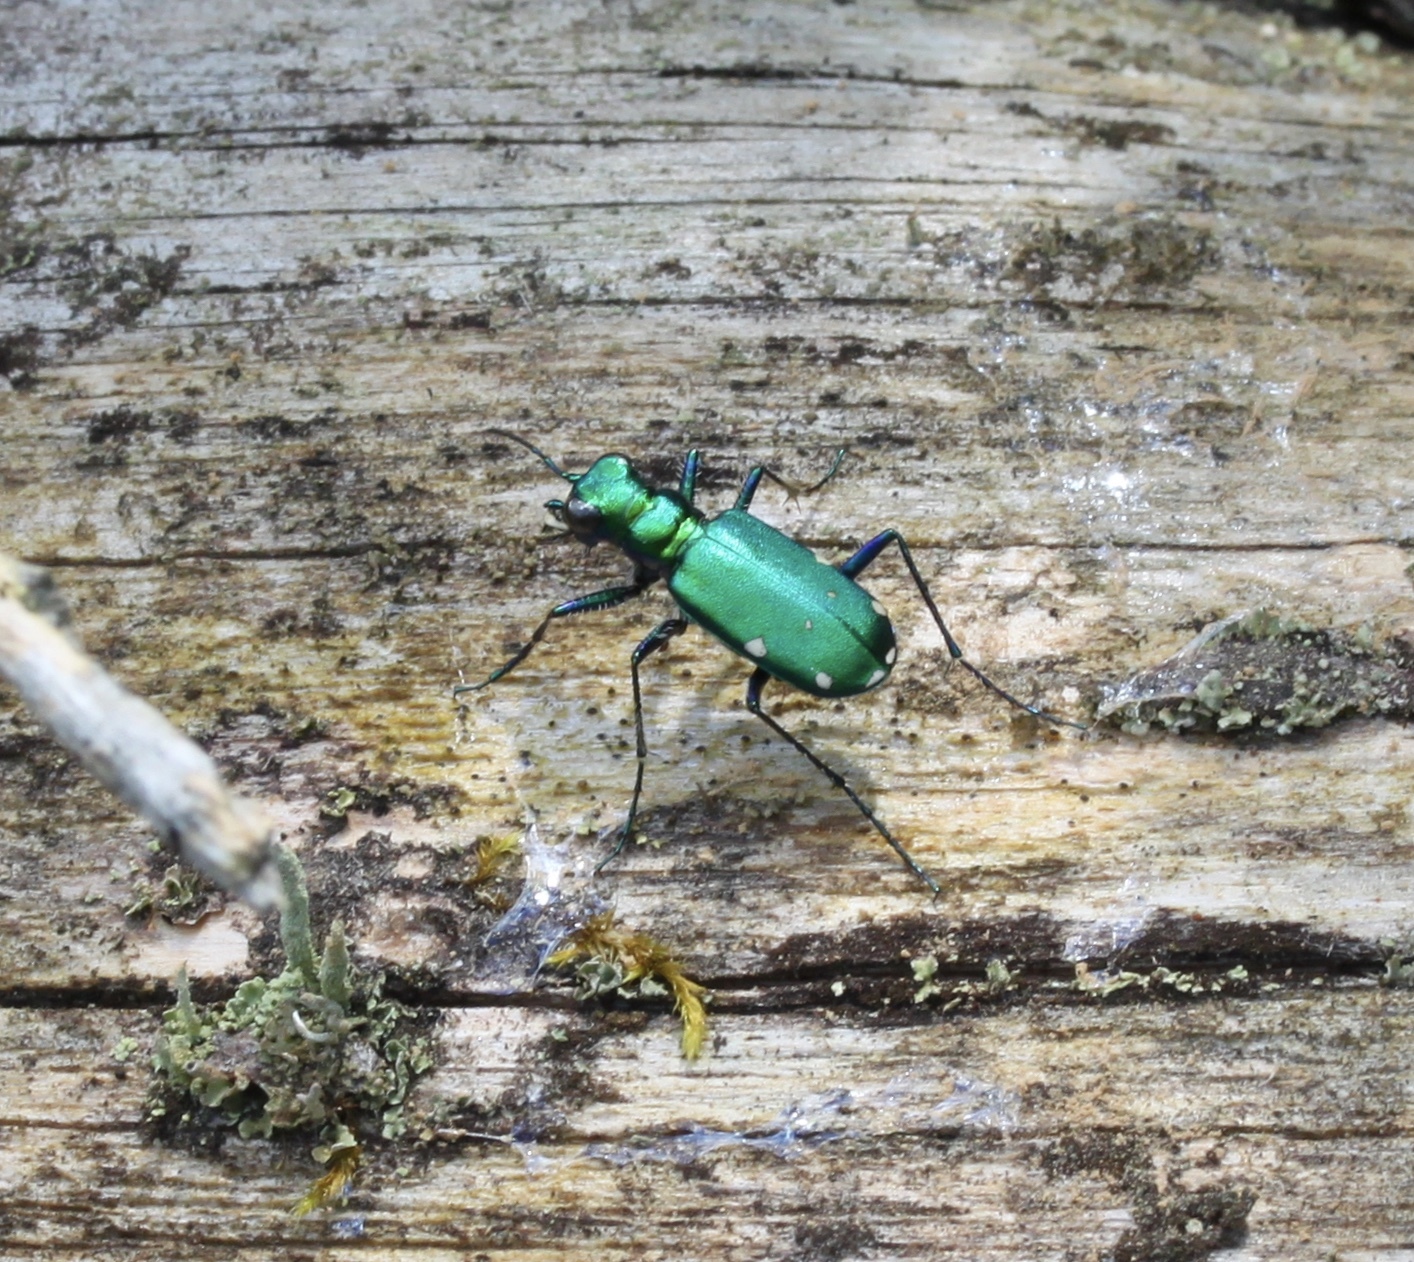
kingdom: Animalia
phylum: Arthropoda
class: Insecta
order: Coleoptera
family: Carabidae
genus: Cicindela
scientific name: Cicindela sexguttata
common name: Six-spotted tiger beetle
